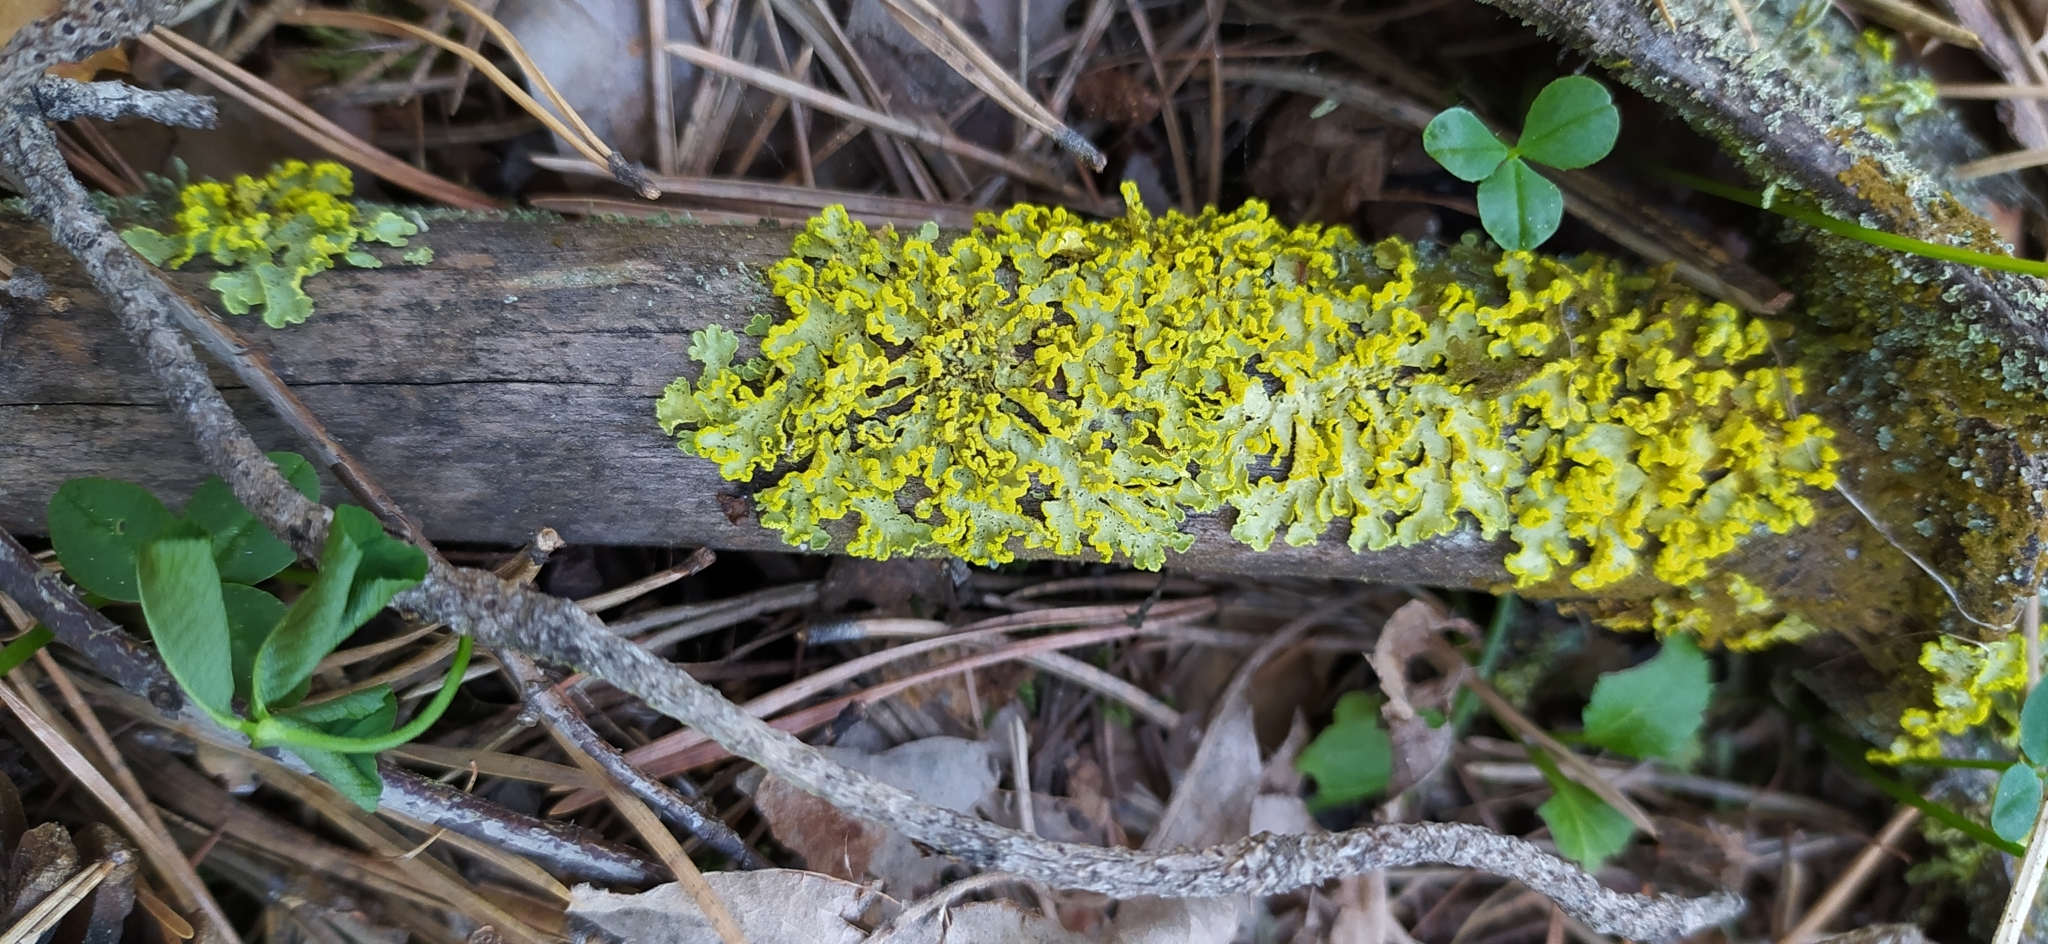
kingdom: Fungi
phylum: Ascomycota
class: Lecanoromycetes
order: Lecanorales
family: Parmeliaceae
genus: Vulpicida
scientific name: Vulpicida pinastri
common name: Powdered sunshine lichen
